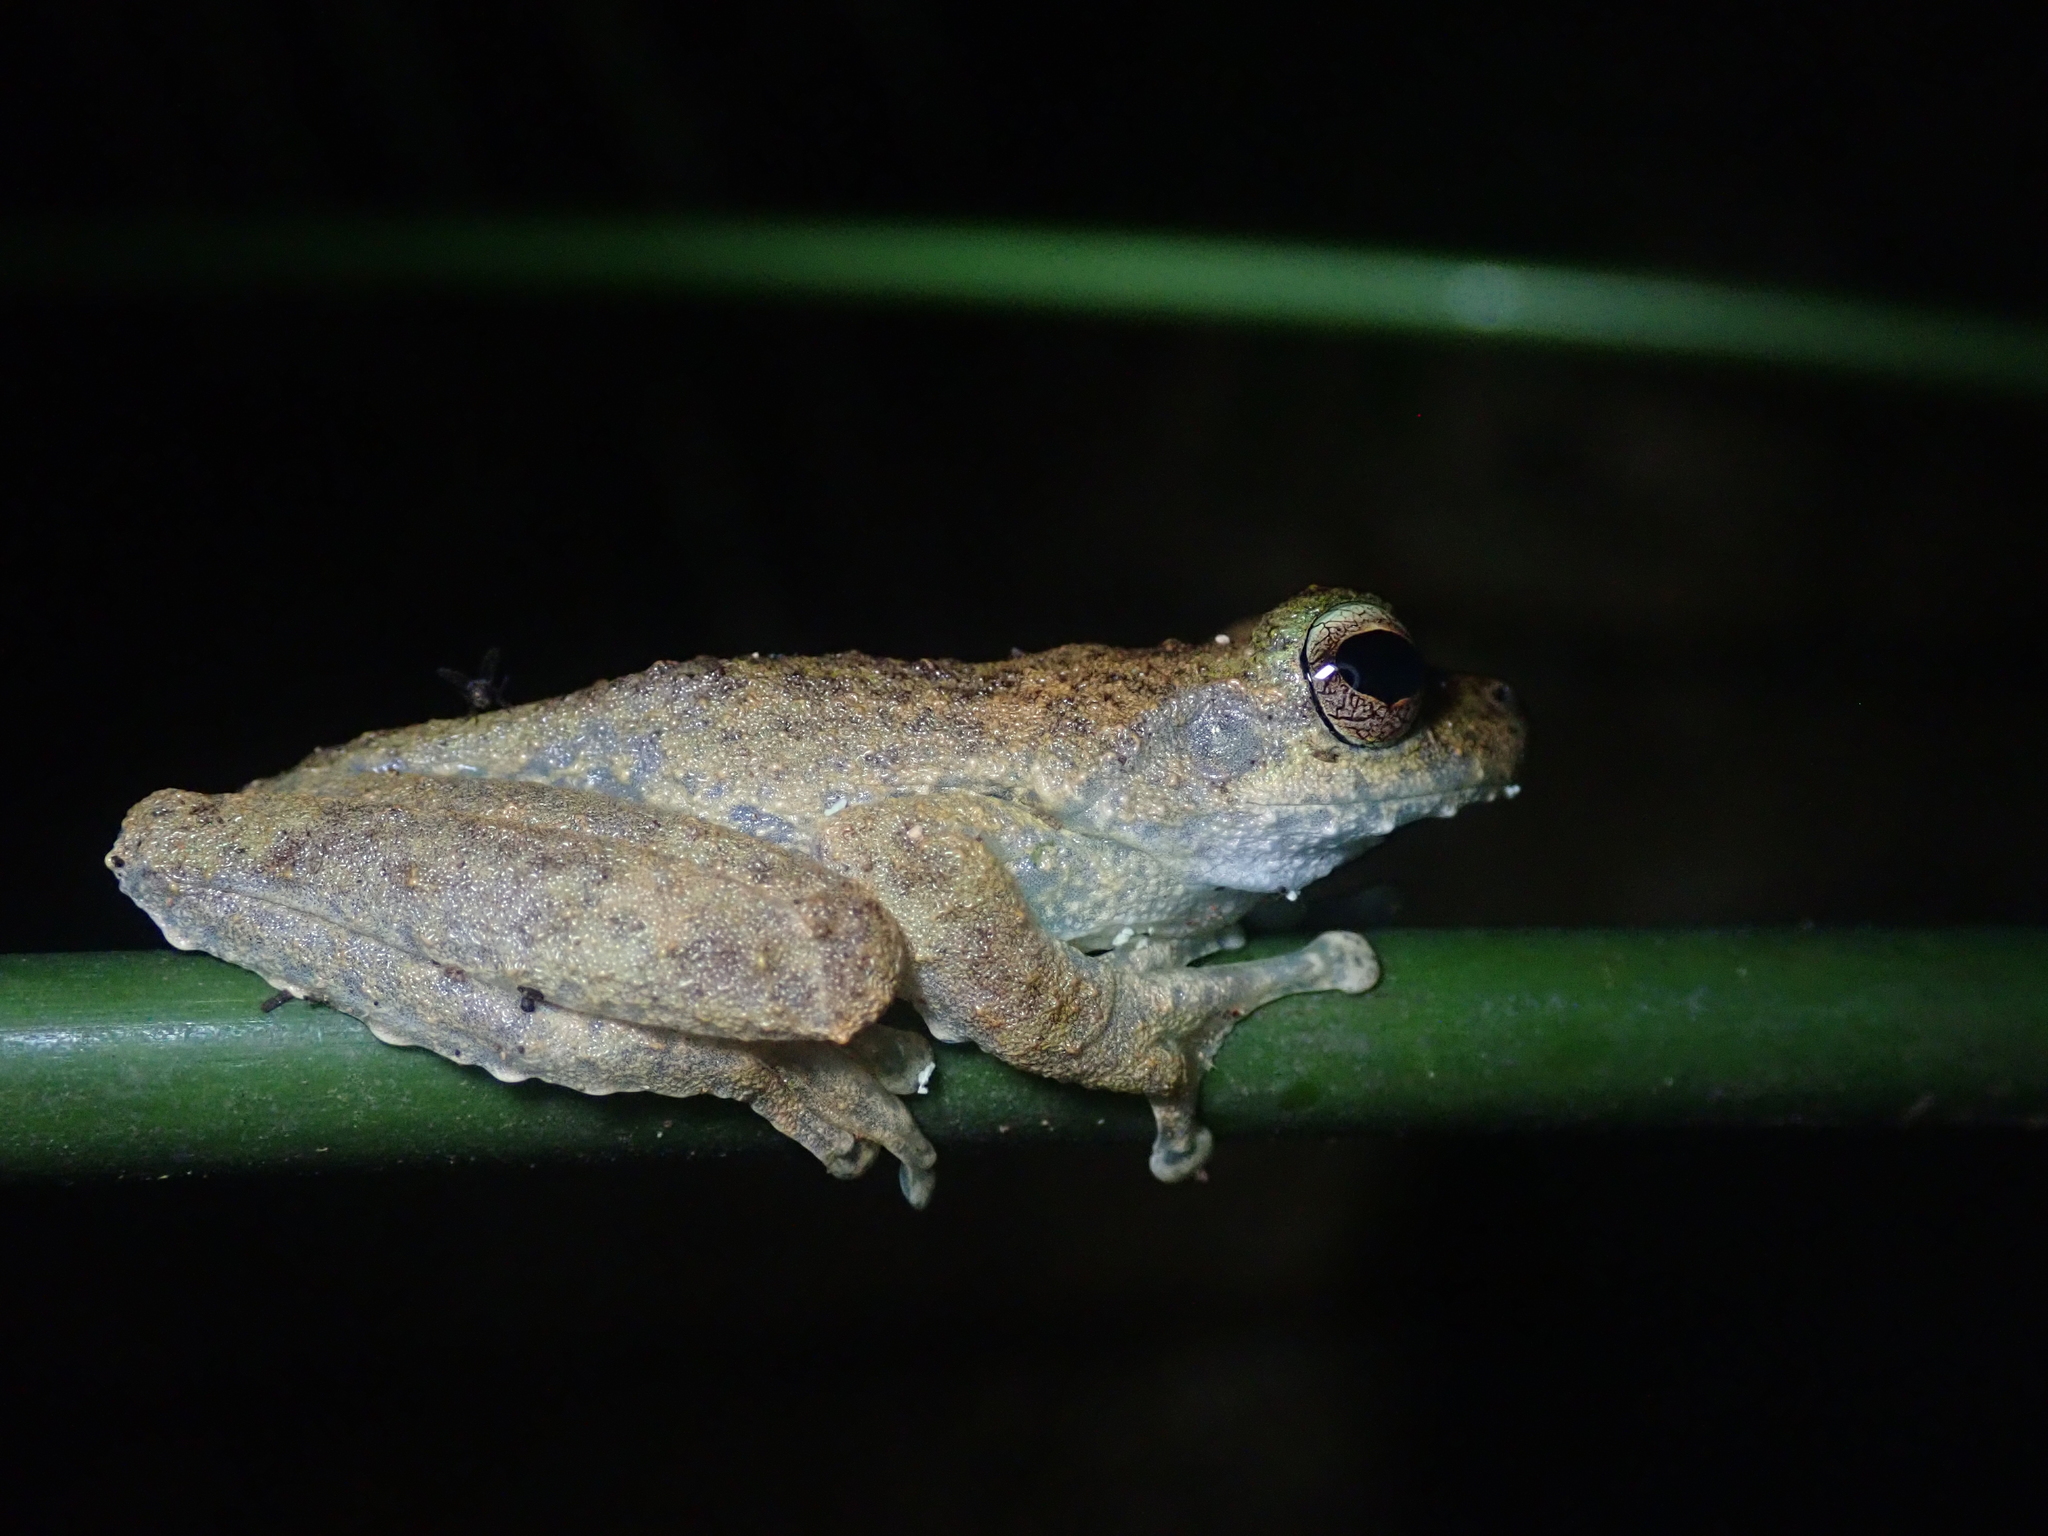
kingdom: Animalia
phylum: Chordata
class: Amphibia
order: Anura
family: Pelodryadidae
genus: Ranoidea
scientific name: Ranoidea myola
